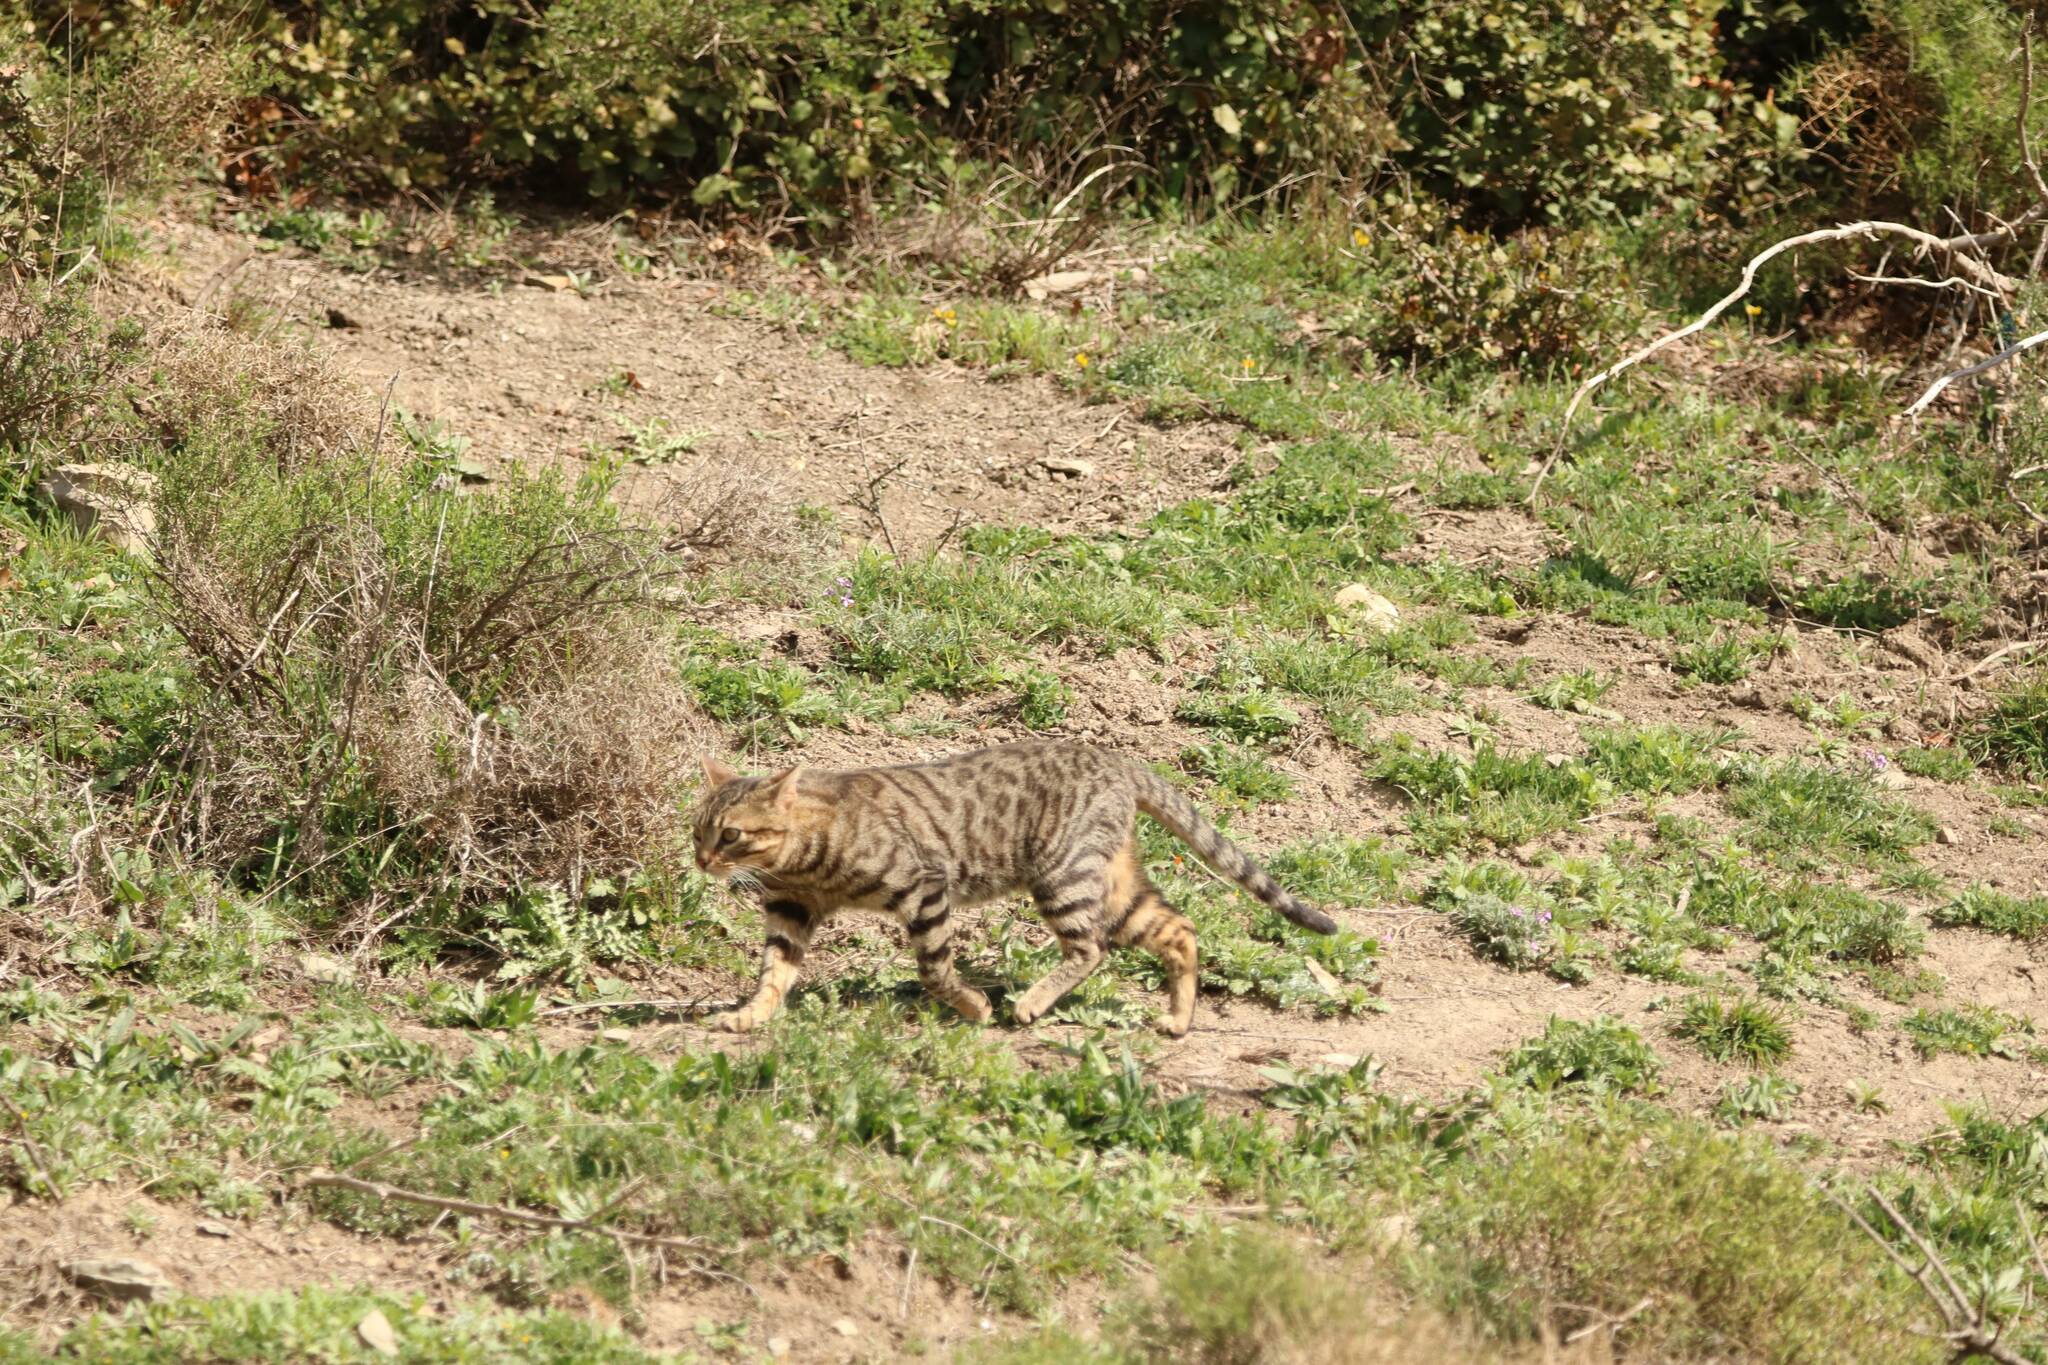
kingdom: Animalia
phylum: Chordata
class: Mammalia
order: Carnivora
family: Felidae
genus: Felis
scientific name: Felis catus
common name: Domestic cat
